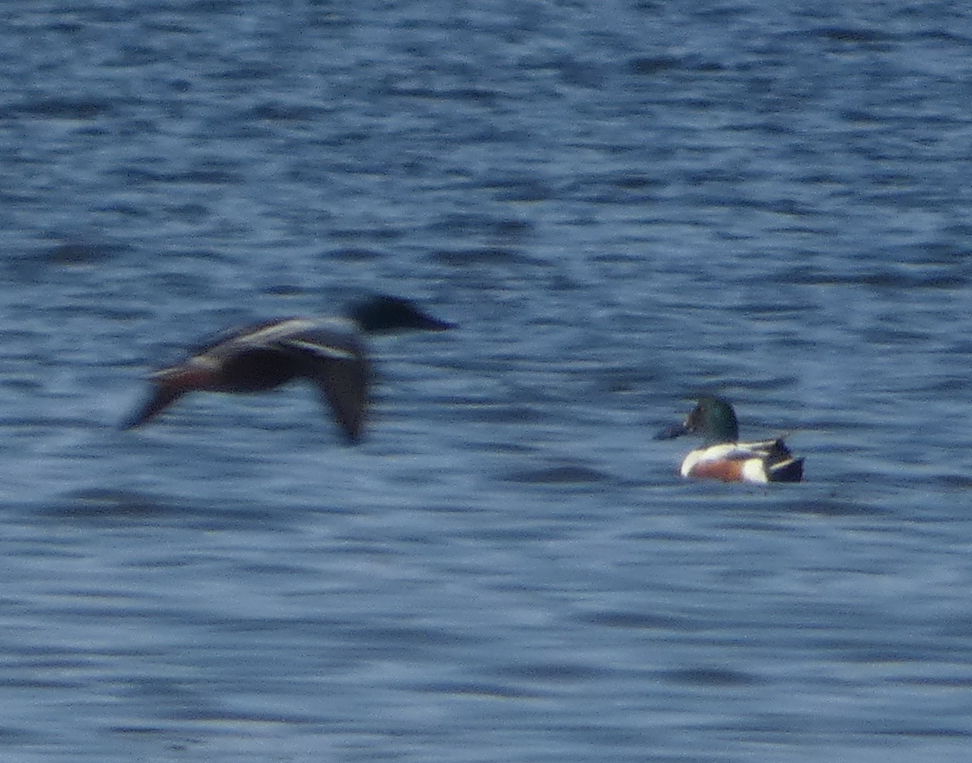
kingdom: Animalia
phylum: Chordata
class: Aves
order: Anseriformes
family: Anatidae
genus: Spatula
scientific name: Spatula clypeata
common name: Northern shoveler
